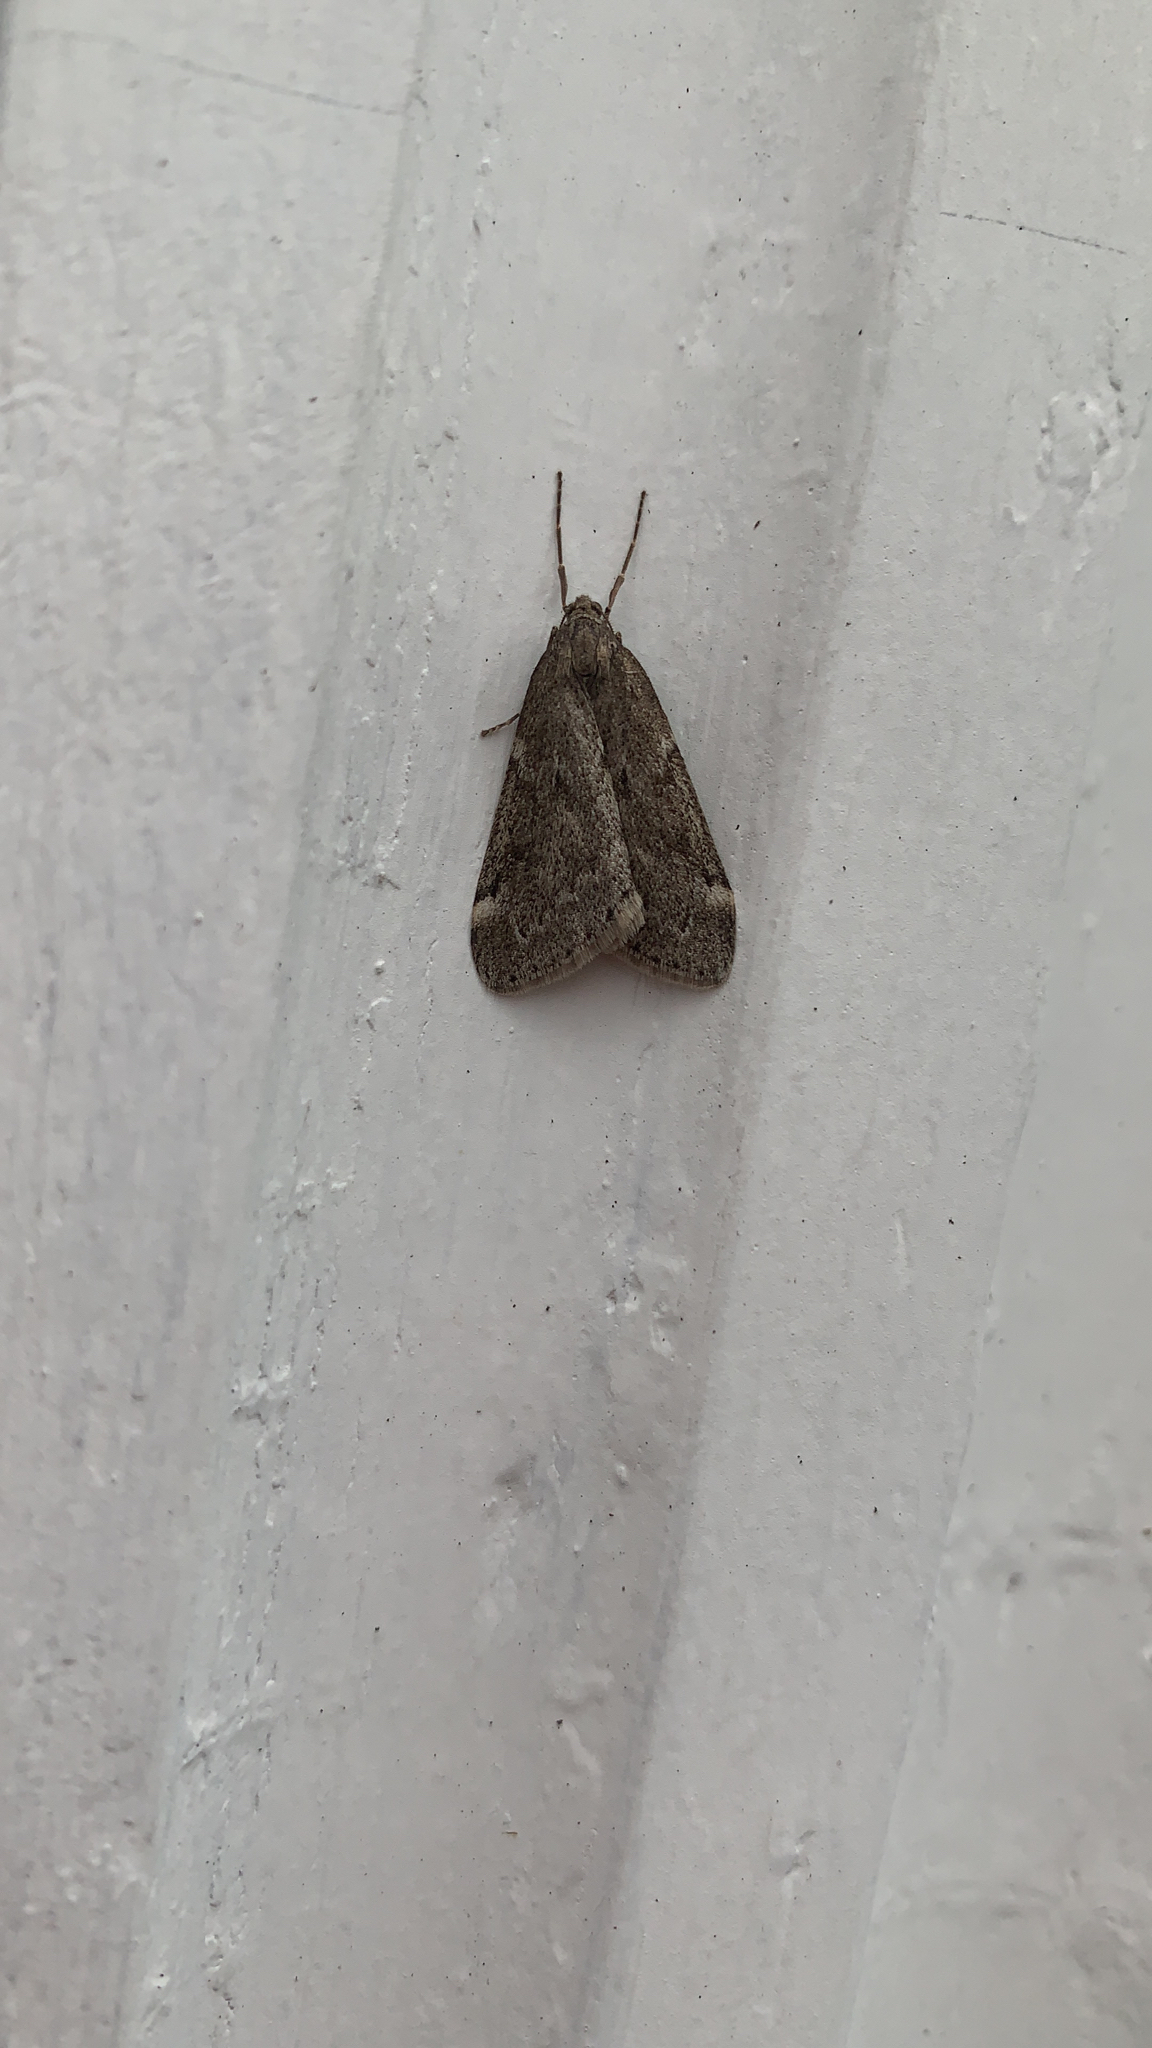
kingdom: Animalia
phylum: Arthropoda
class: Insecta
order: Lepidoptera
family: Geometridae
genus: Alsophila
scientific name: Alsophila pometaria
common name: Fall cankerworm
